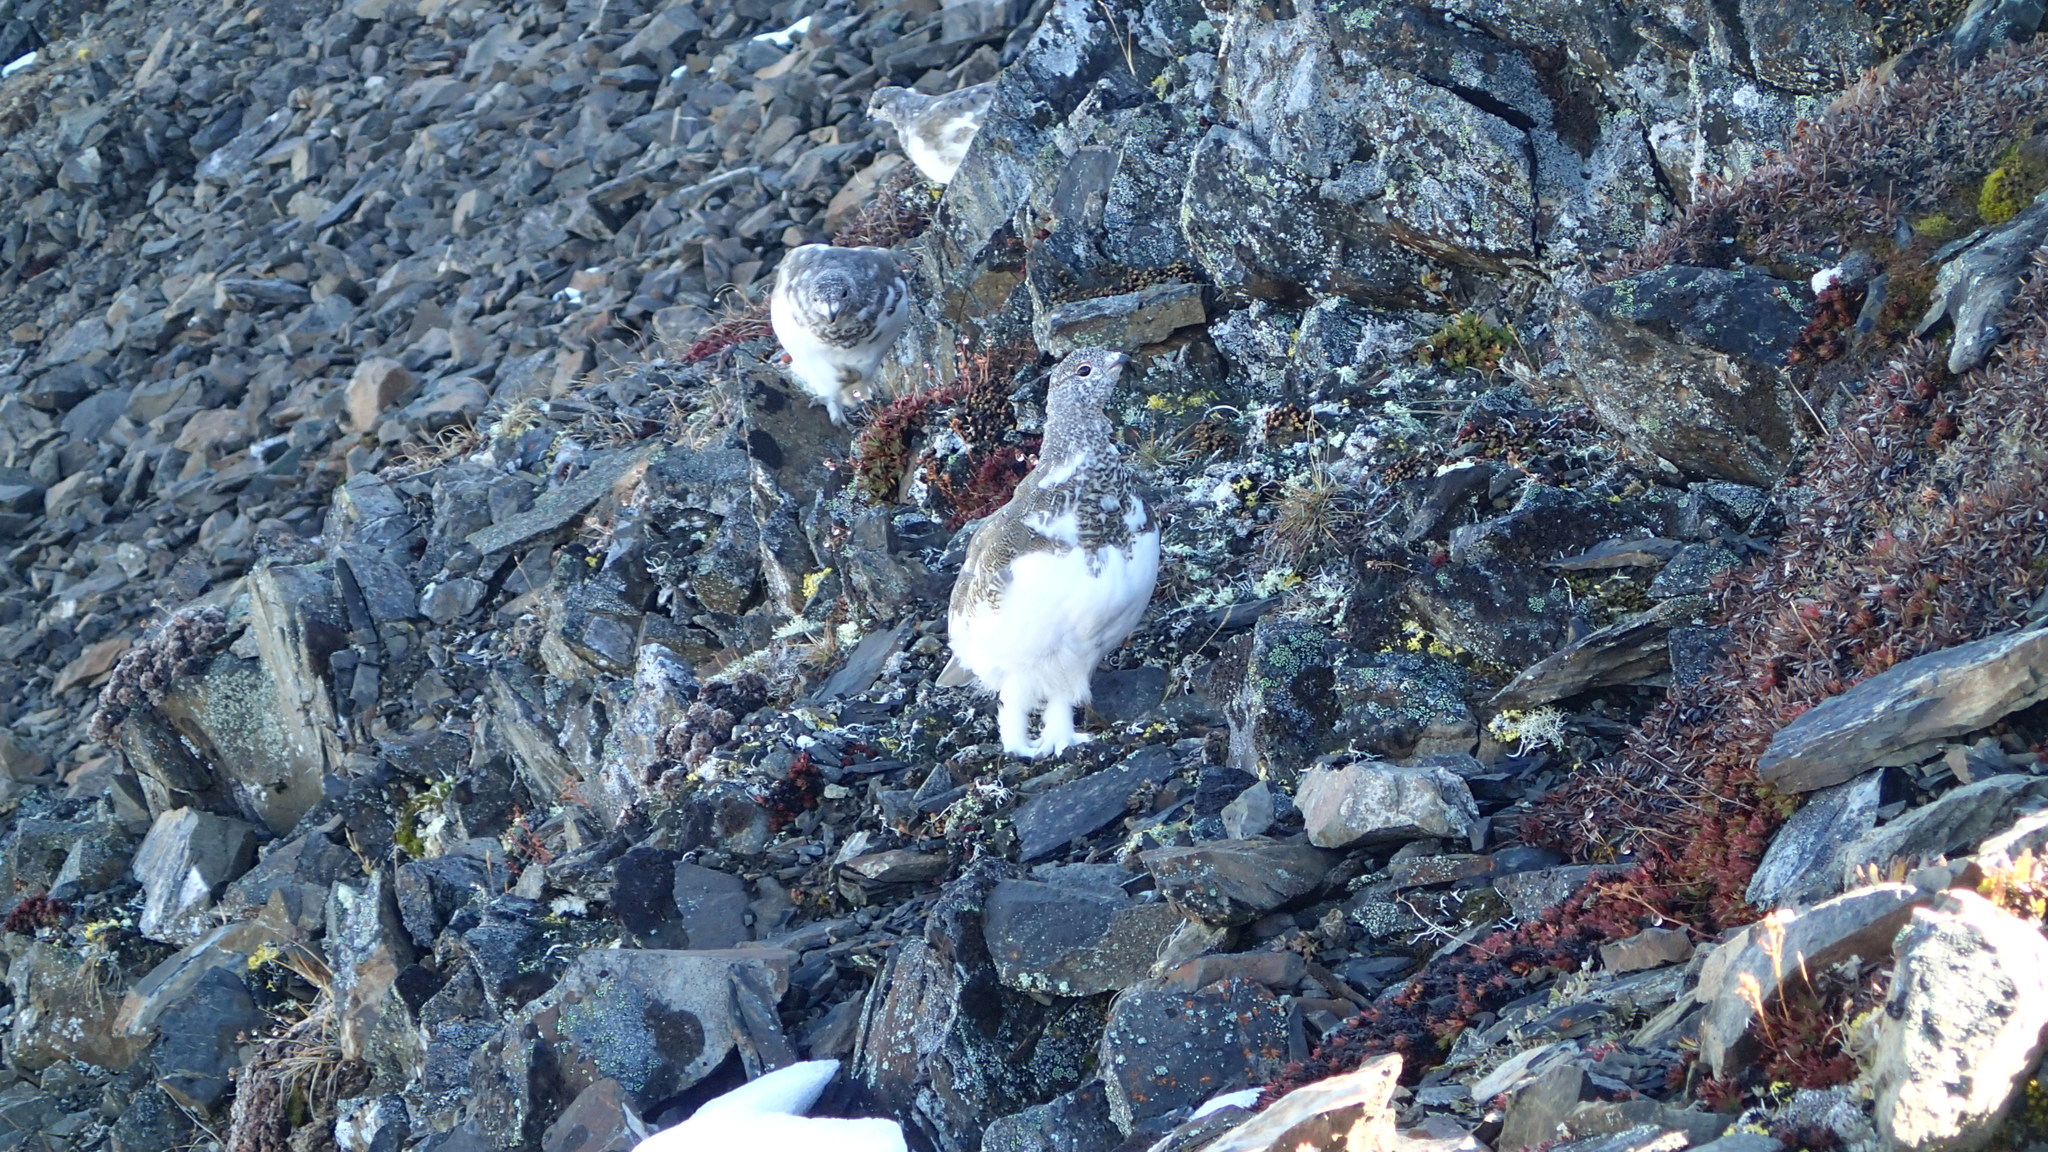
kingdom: Animalia
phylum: Chordata
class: Aves
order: Galliformes
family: Phasianidae
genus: Lagopus
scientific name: Lagopus leucura
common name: White-tailed ptarmigan
